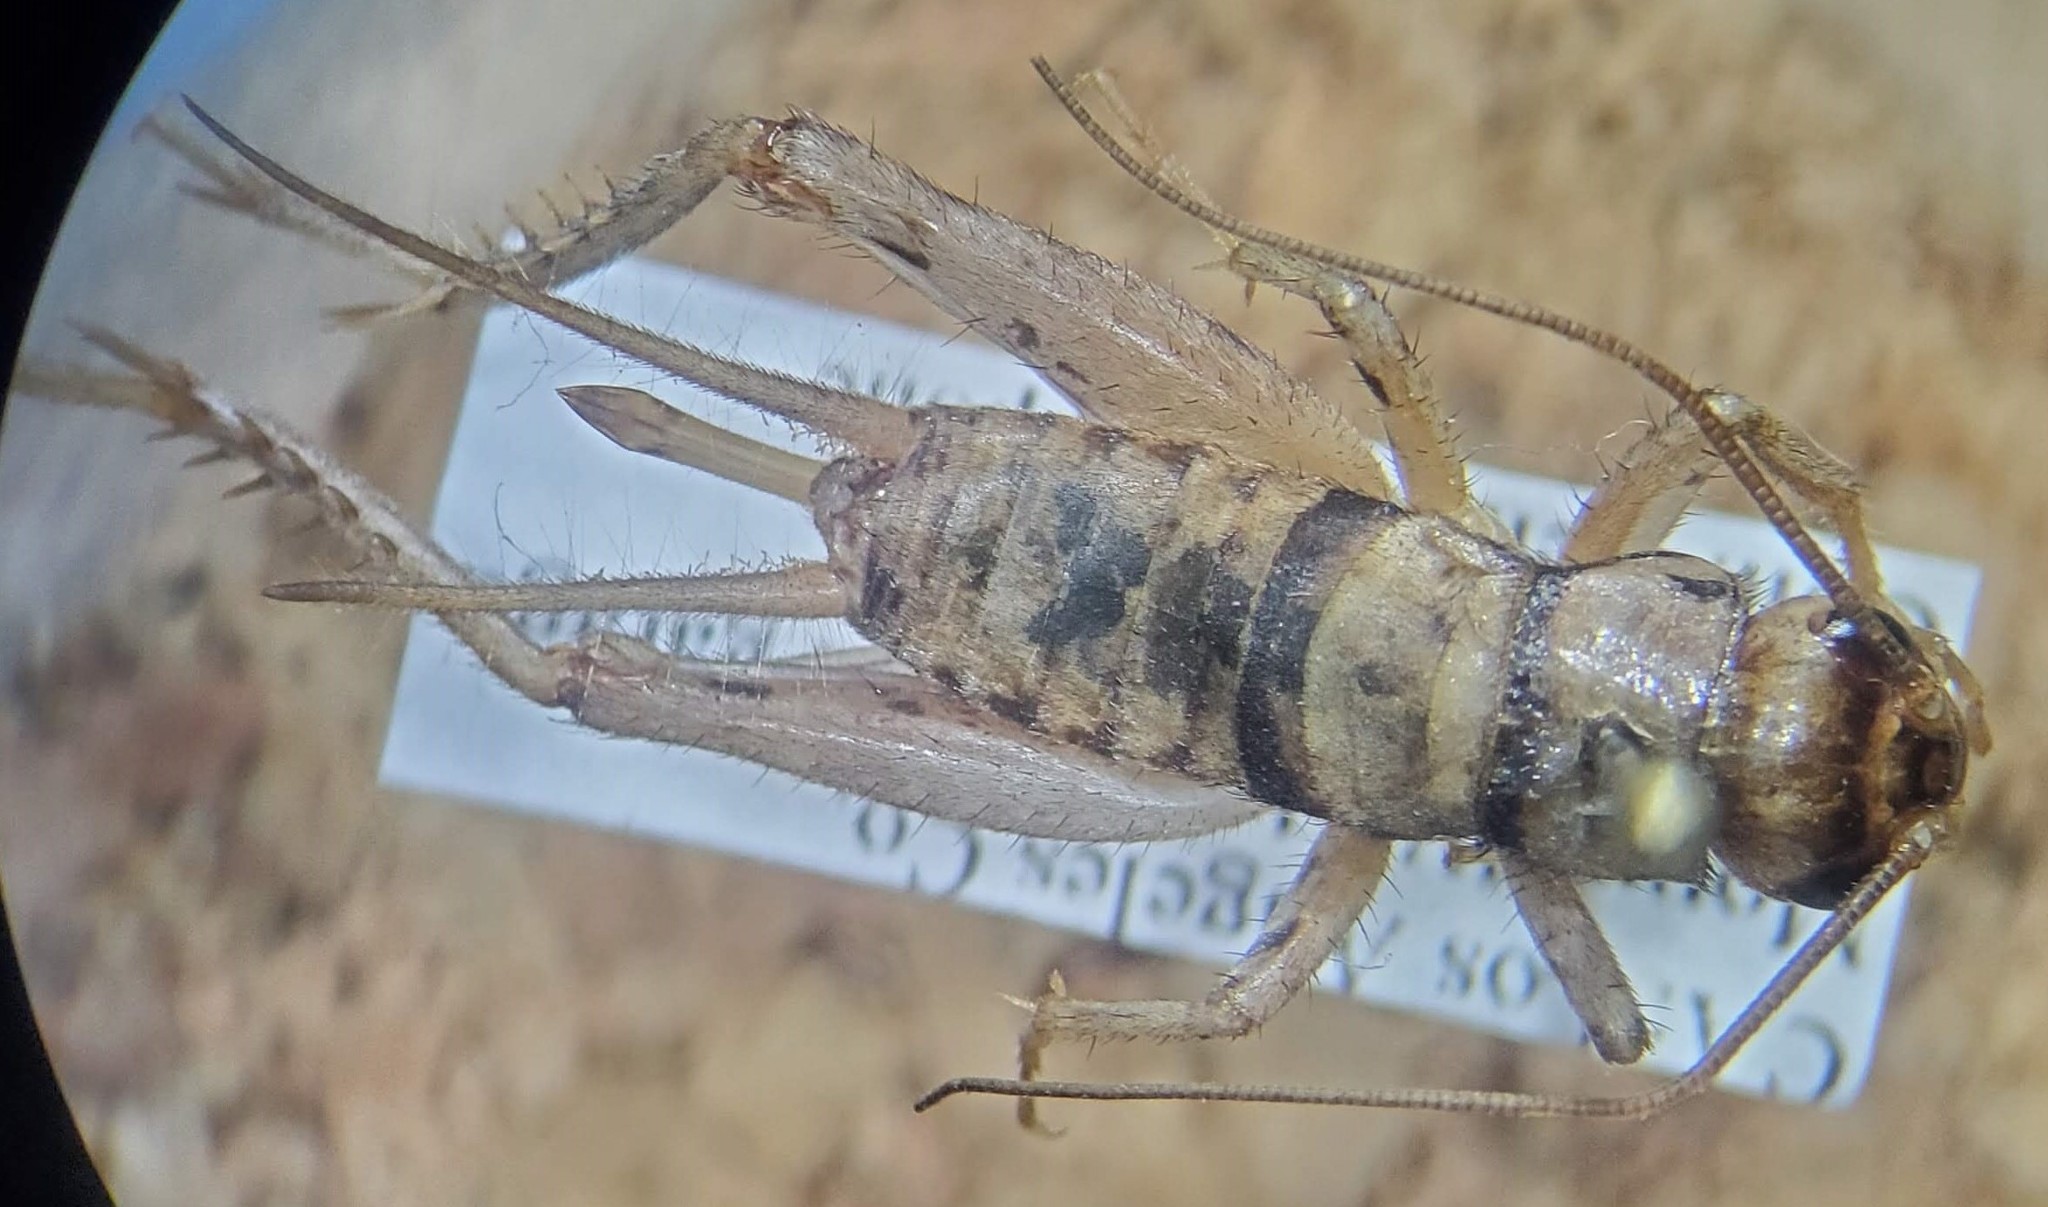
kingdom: Animalia
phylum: Arthropoda
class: Insecta
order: Orthoptera
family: Gryllidae
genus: Gryllodes
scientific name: Gryllodes sigillatus
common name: Tropical house cricket
